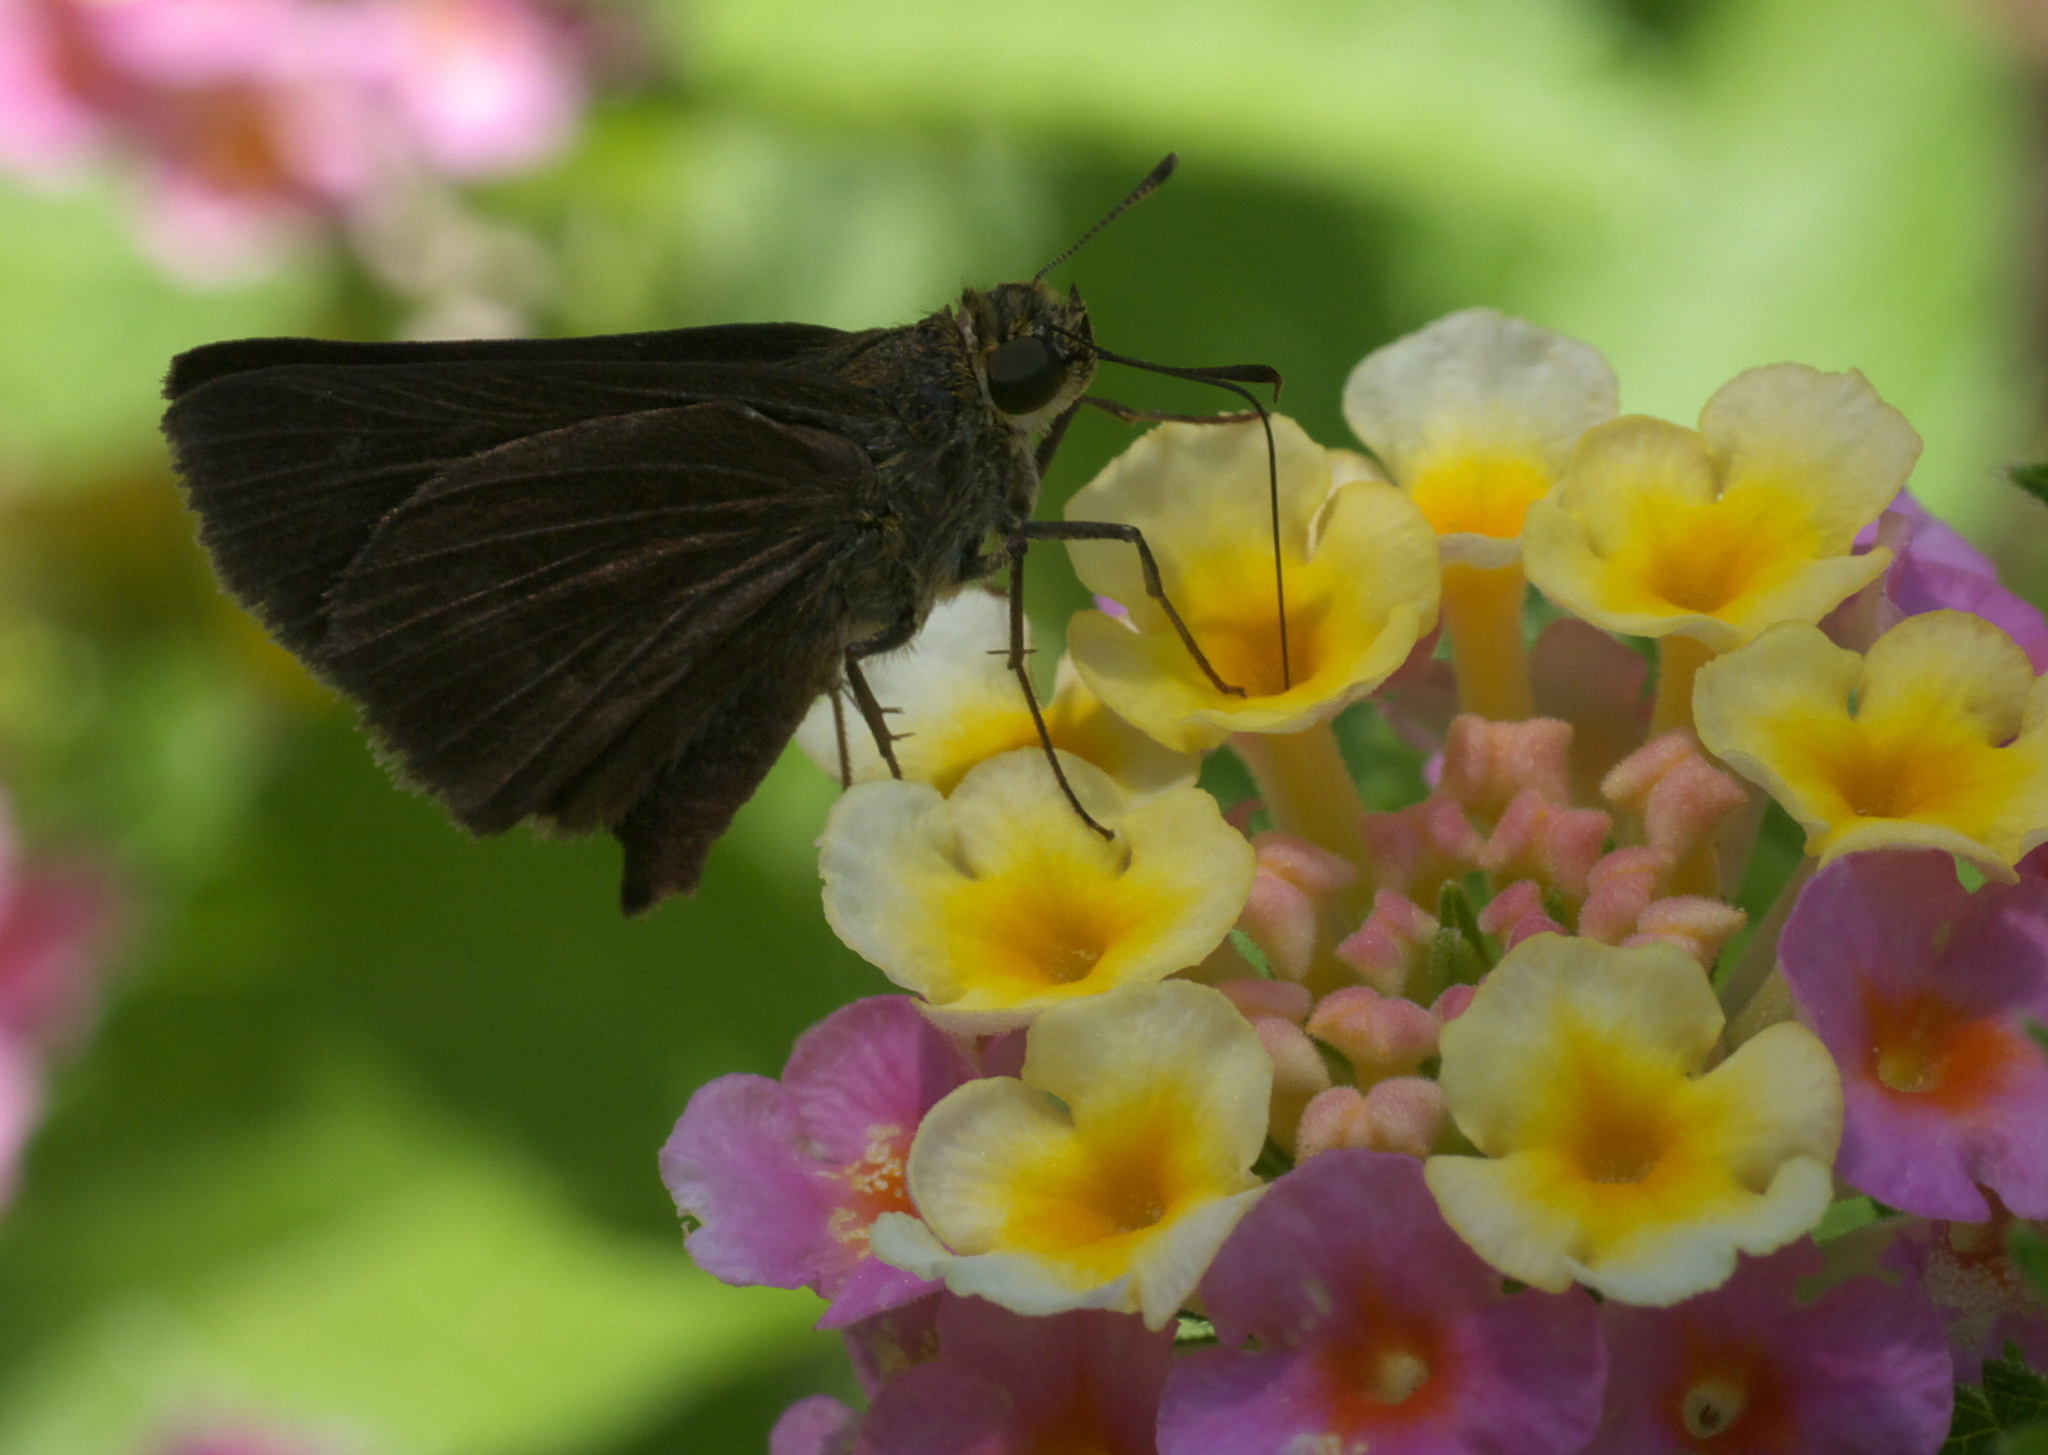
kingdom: Animalia
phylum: Arthropoda
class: Insecta
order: Lepidoptera
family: Hesperiidae
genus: Euphyes
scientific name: Euphyes vestris
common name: Dun skipper
